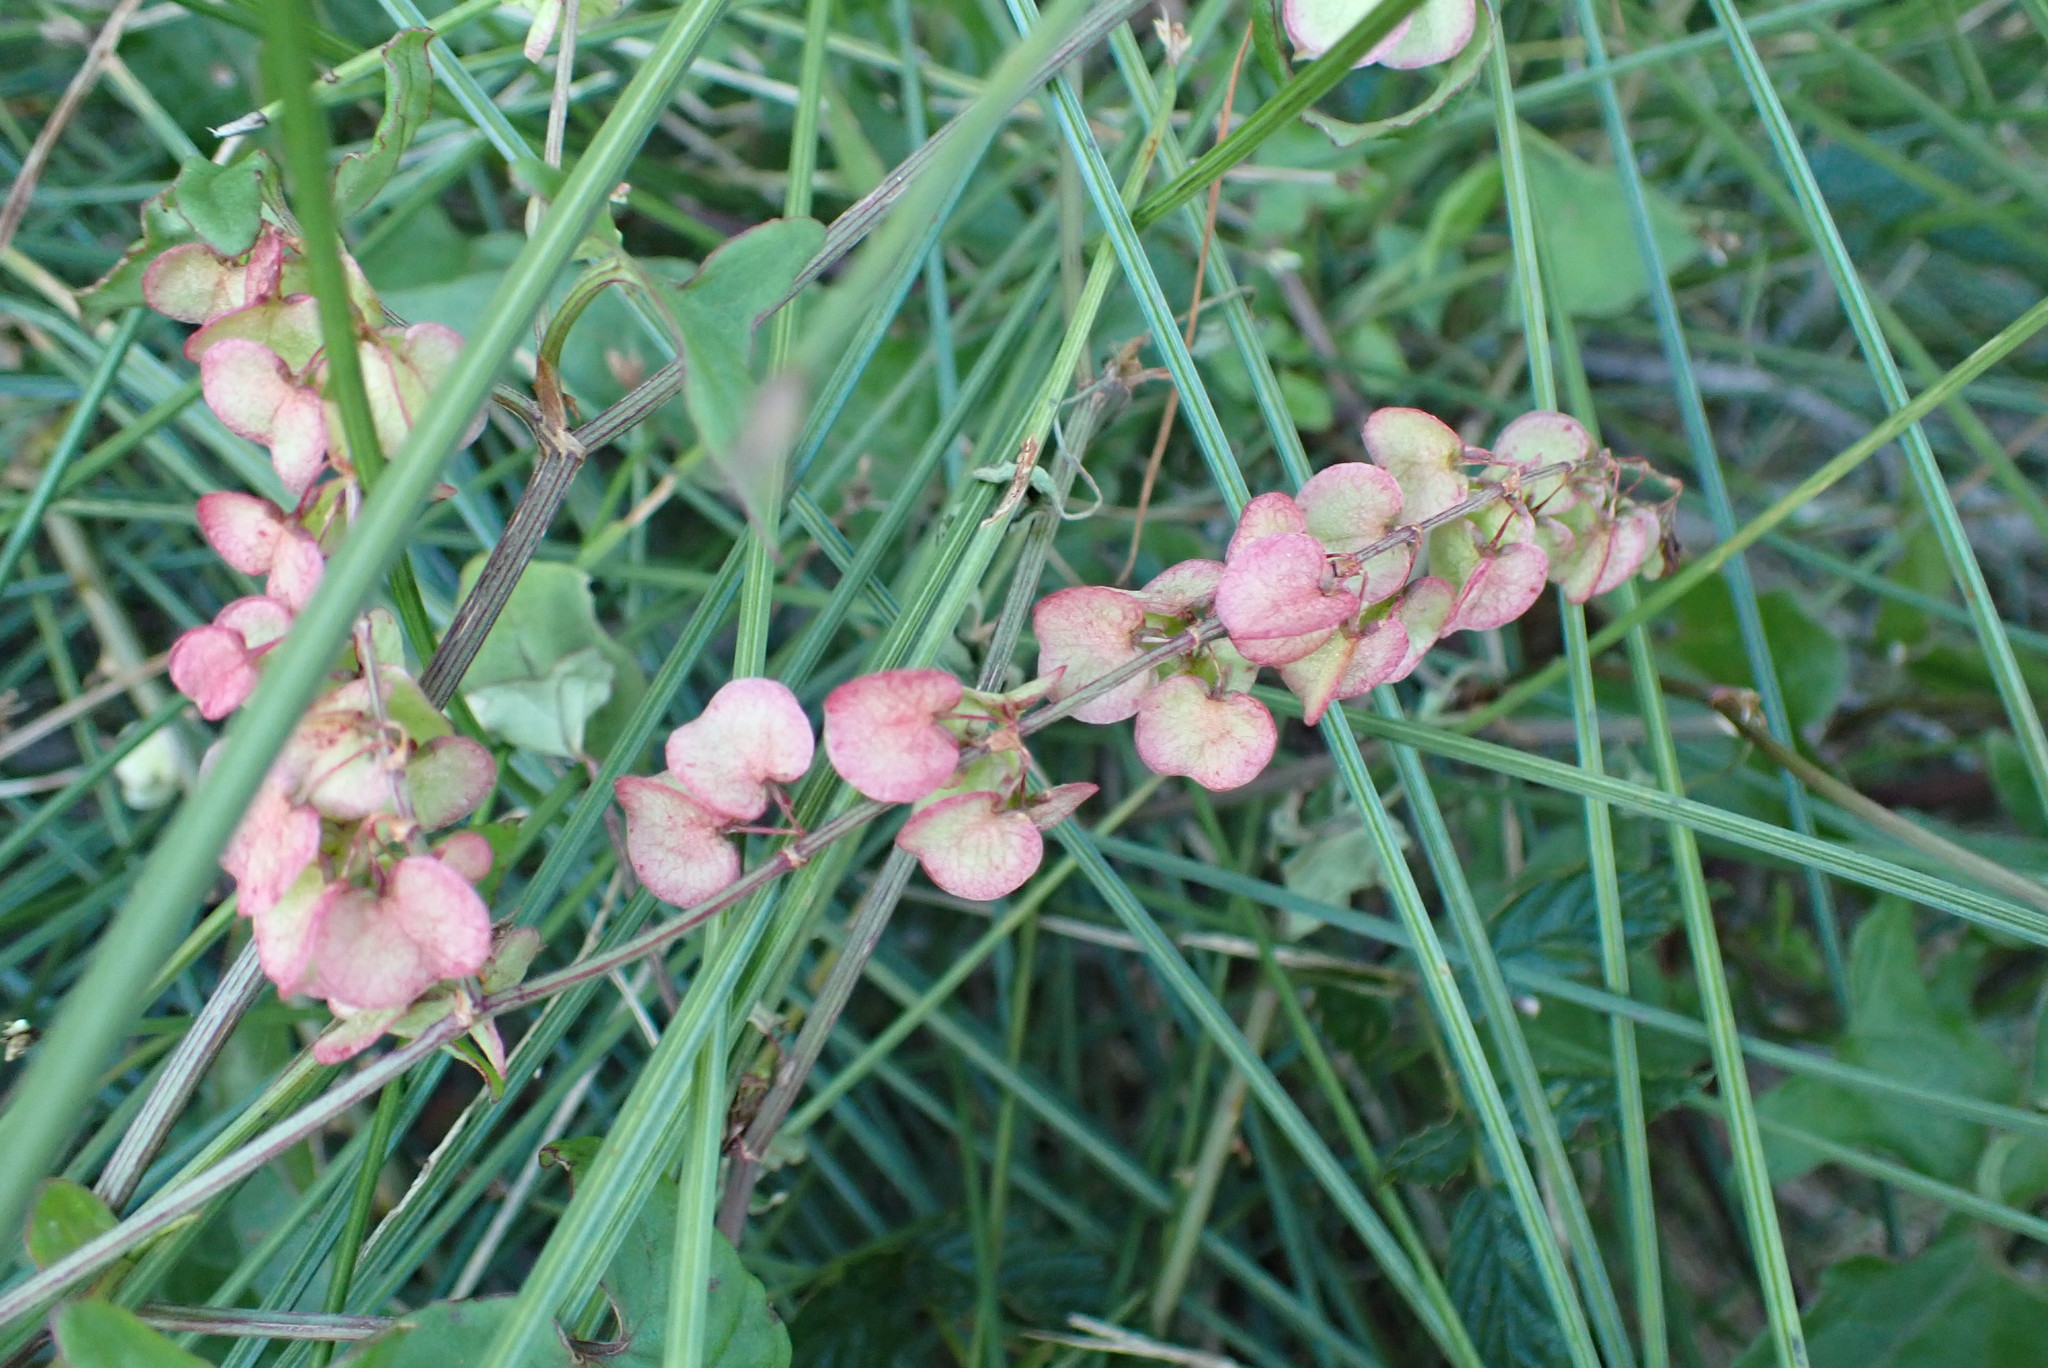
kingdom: Plantae
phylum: Tracheophyta
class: Magnoliopsida
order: Caryophyllales
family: Polygonaceae
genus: Rumex
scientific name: Rumex sagittatus
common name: Climbing dock
